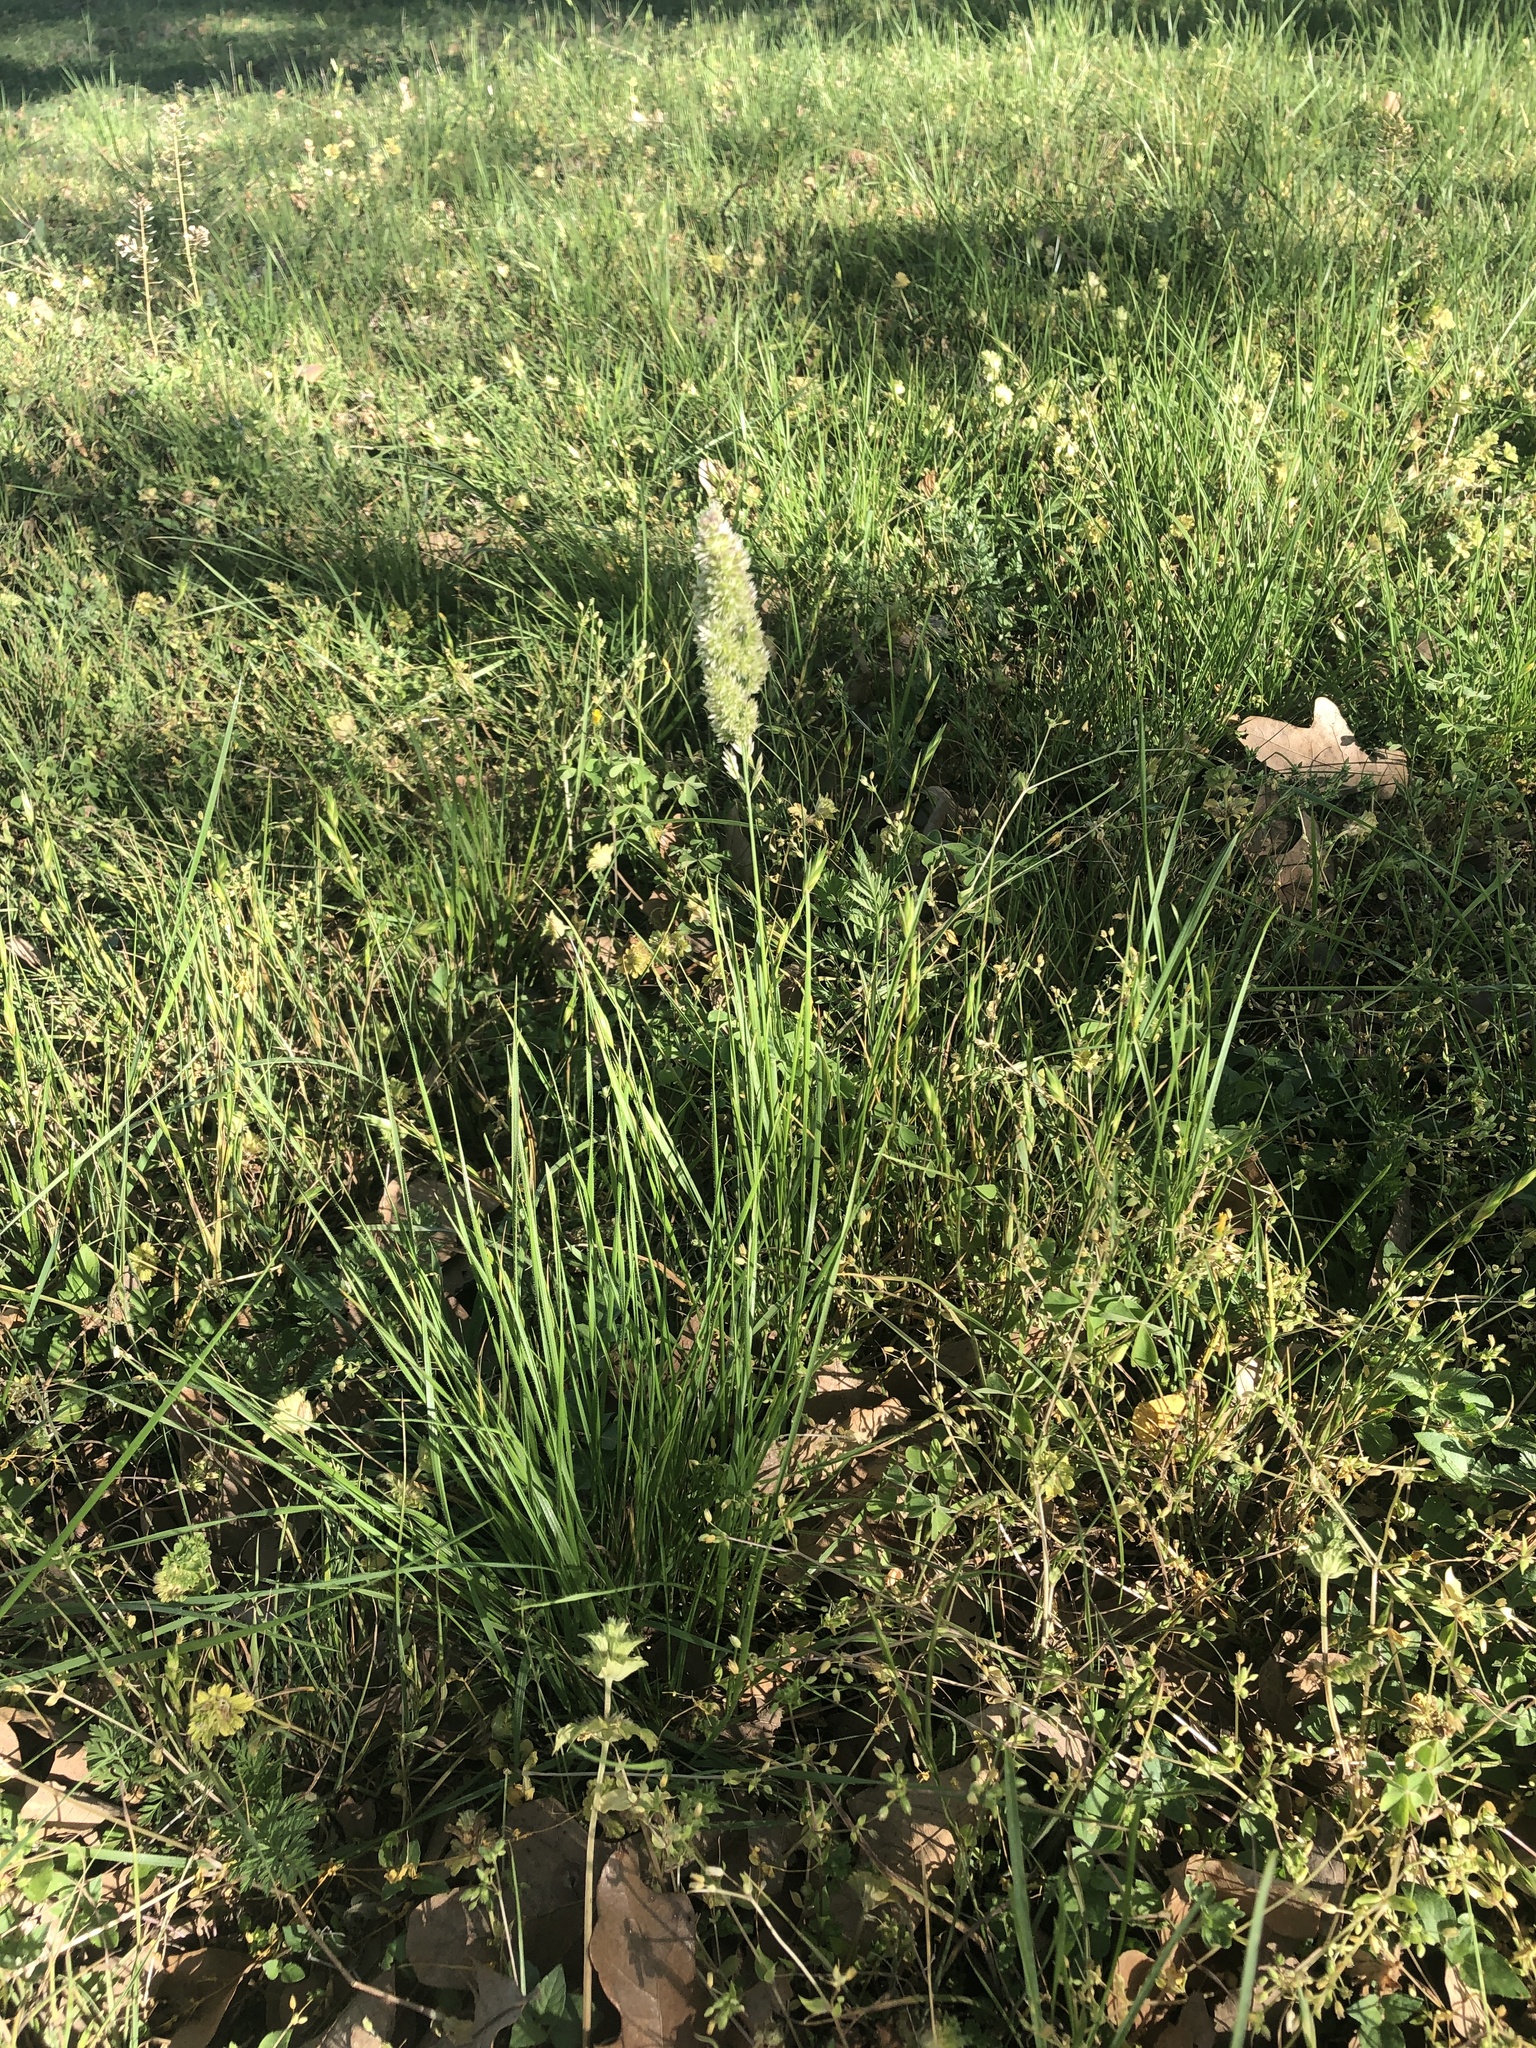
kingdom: Plantae
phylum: Tracheophyta
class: Liliopsida
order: Poales
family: Poaceae
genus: Poa
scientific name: Poa arachnifera
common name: Texas bluegrass
